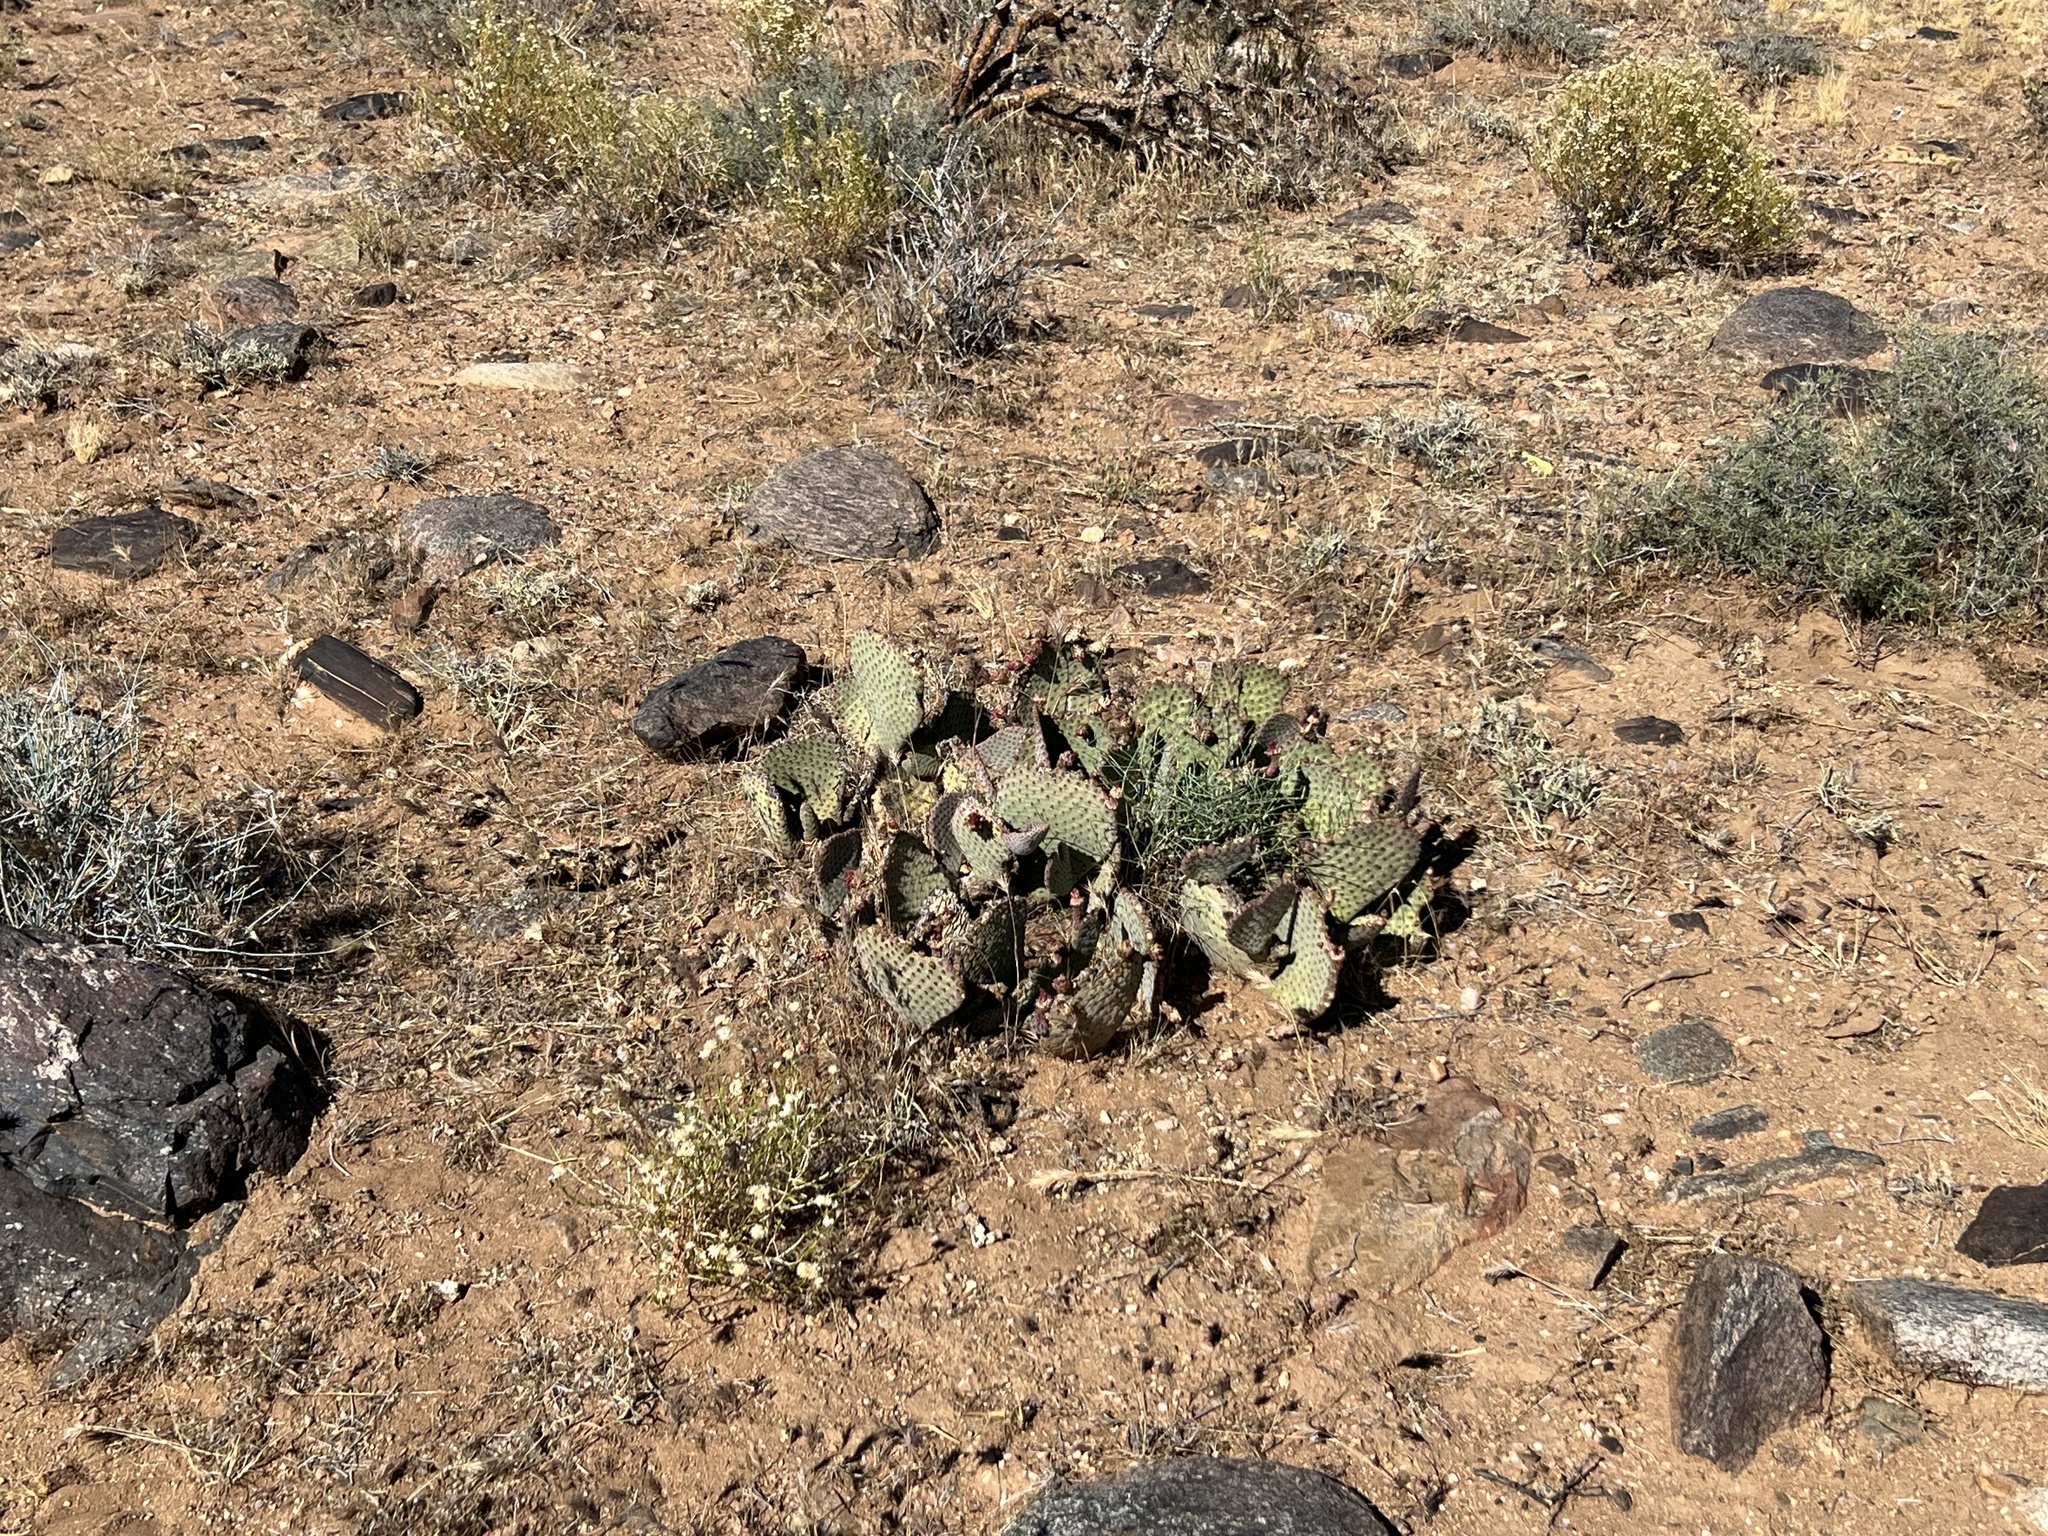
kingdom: Plantae
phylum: Tracheophyta
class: Magnoliopsida
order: Caryophyllales
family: Cactaceae
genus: Opuntia
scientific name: Opuntia basilaris
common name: Beavertail prickly-pear
